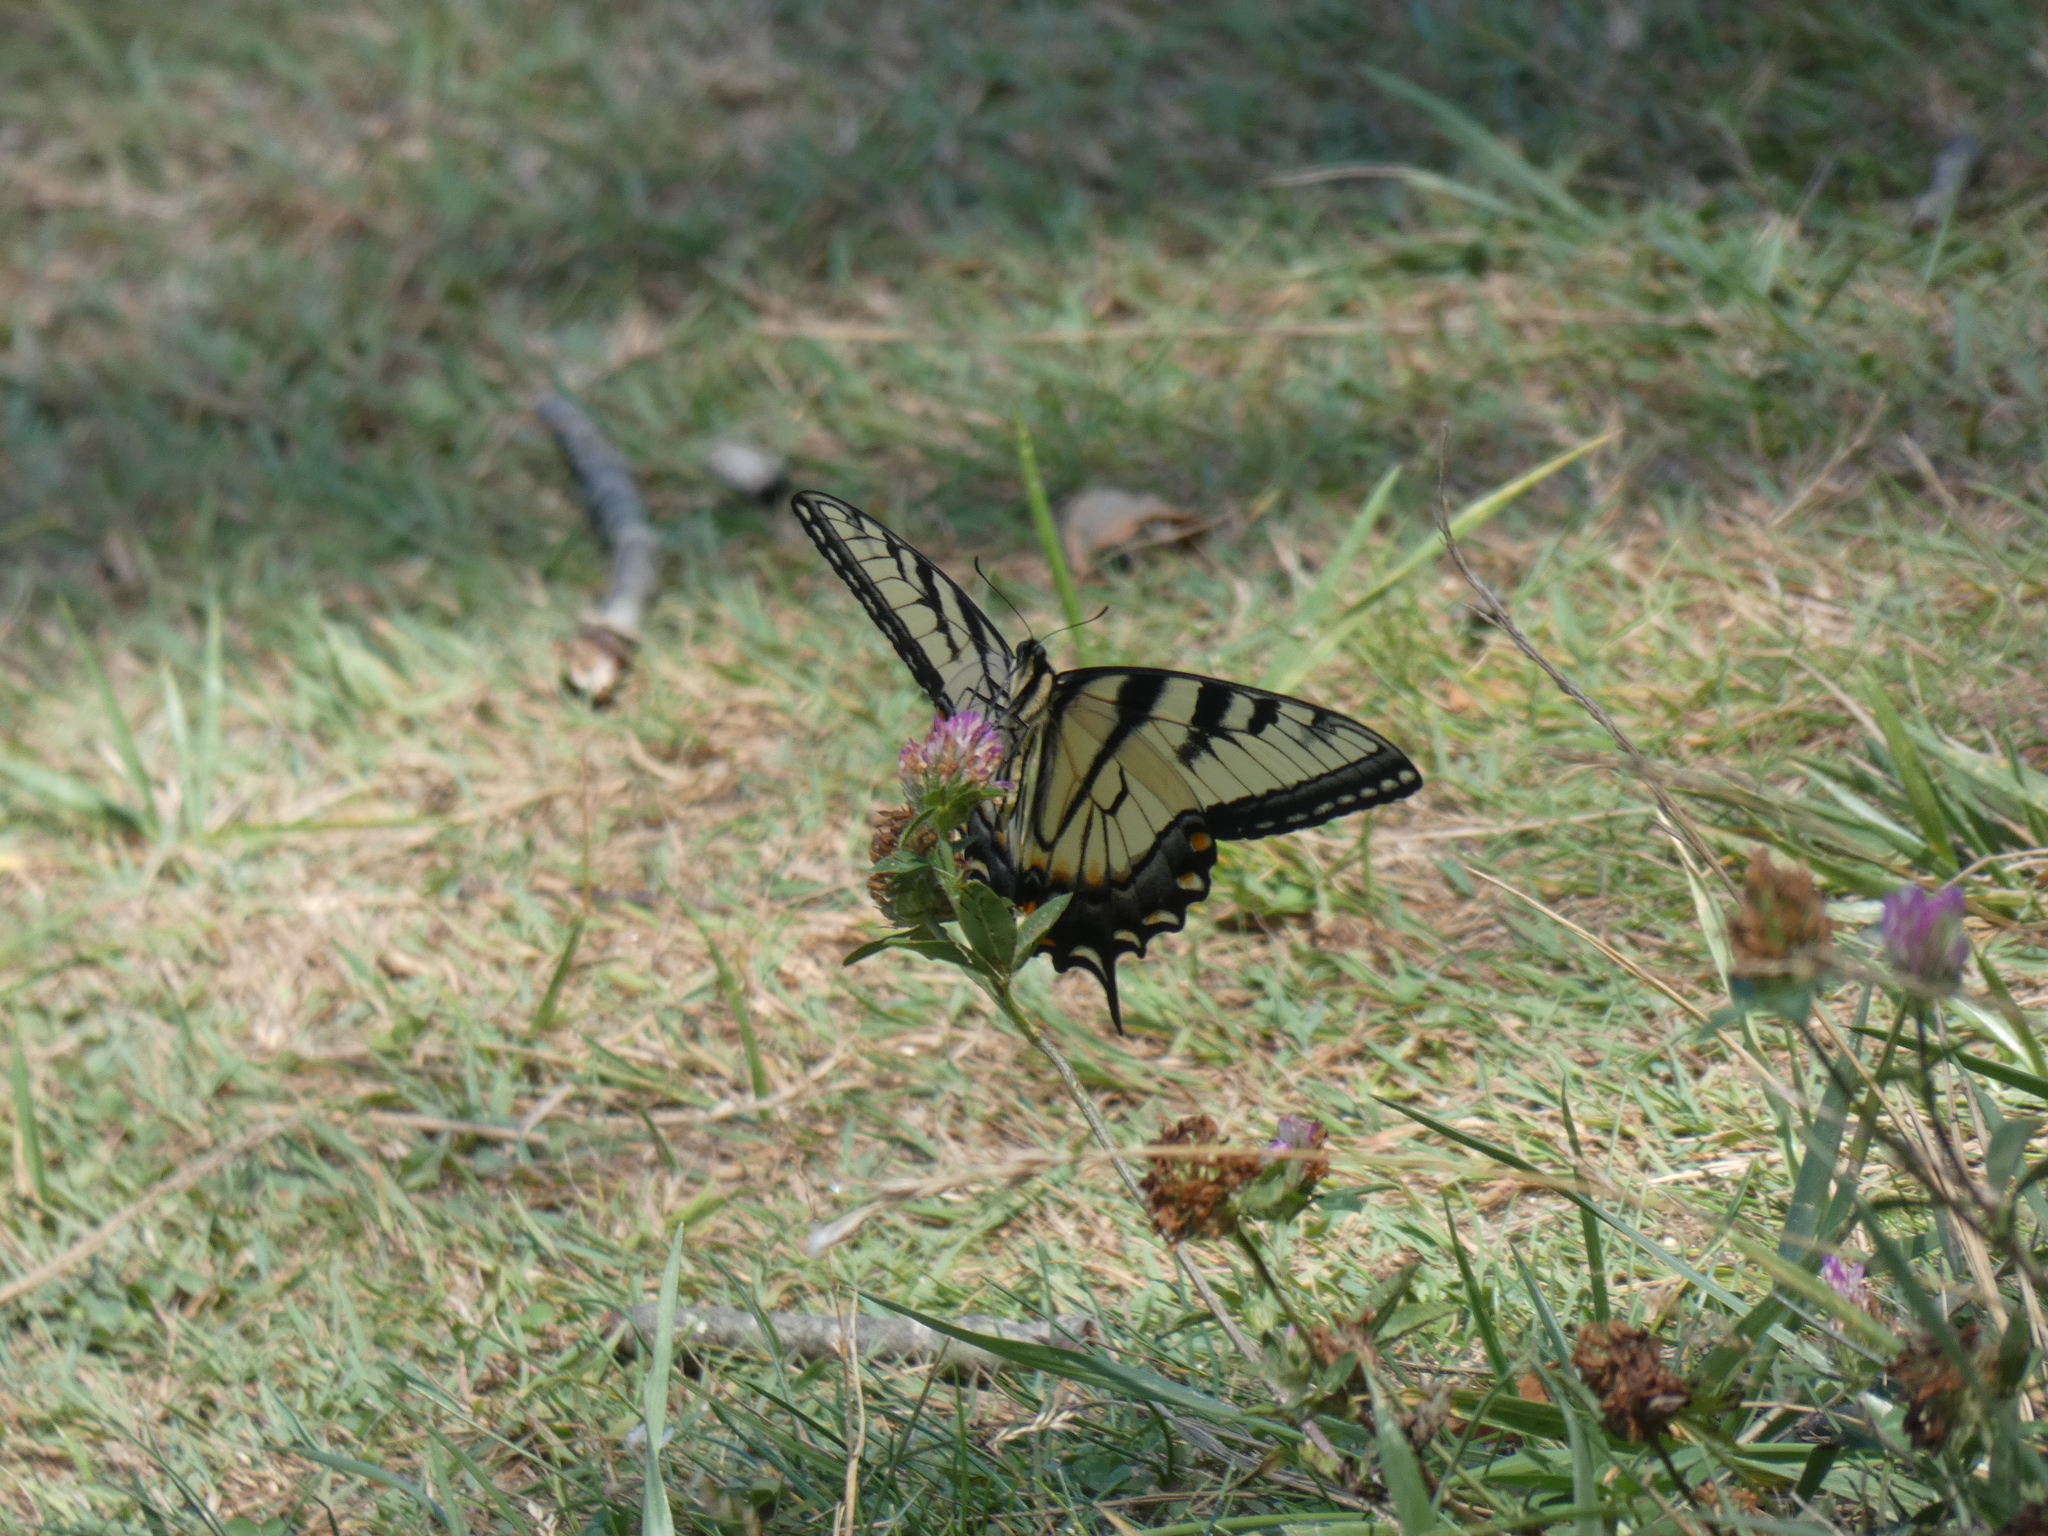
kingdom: Animalia
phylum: Arthropoda
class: Insecta
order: Lepidoptera
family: Papilionidae
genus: Papilio
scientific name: Papilio glaucus
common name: Tiger swallowtail
